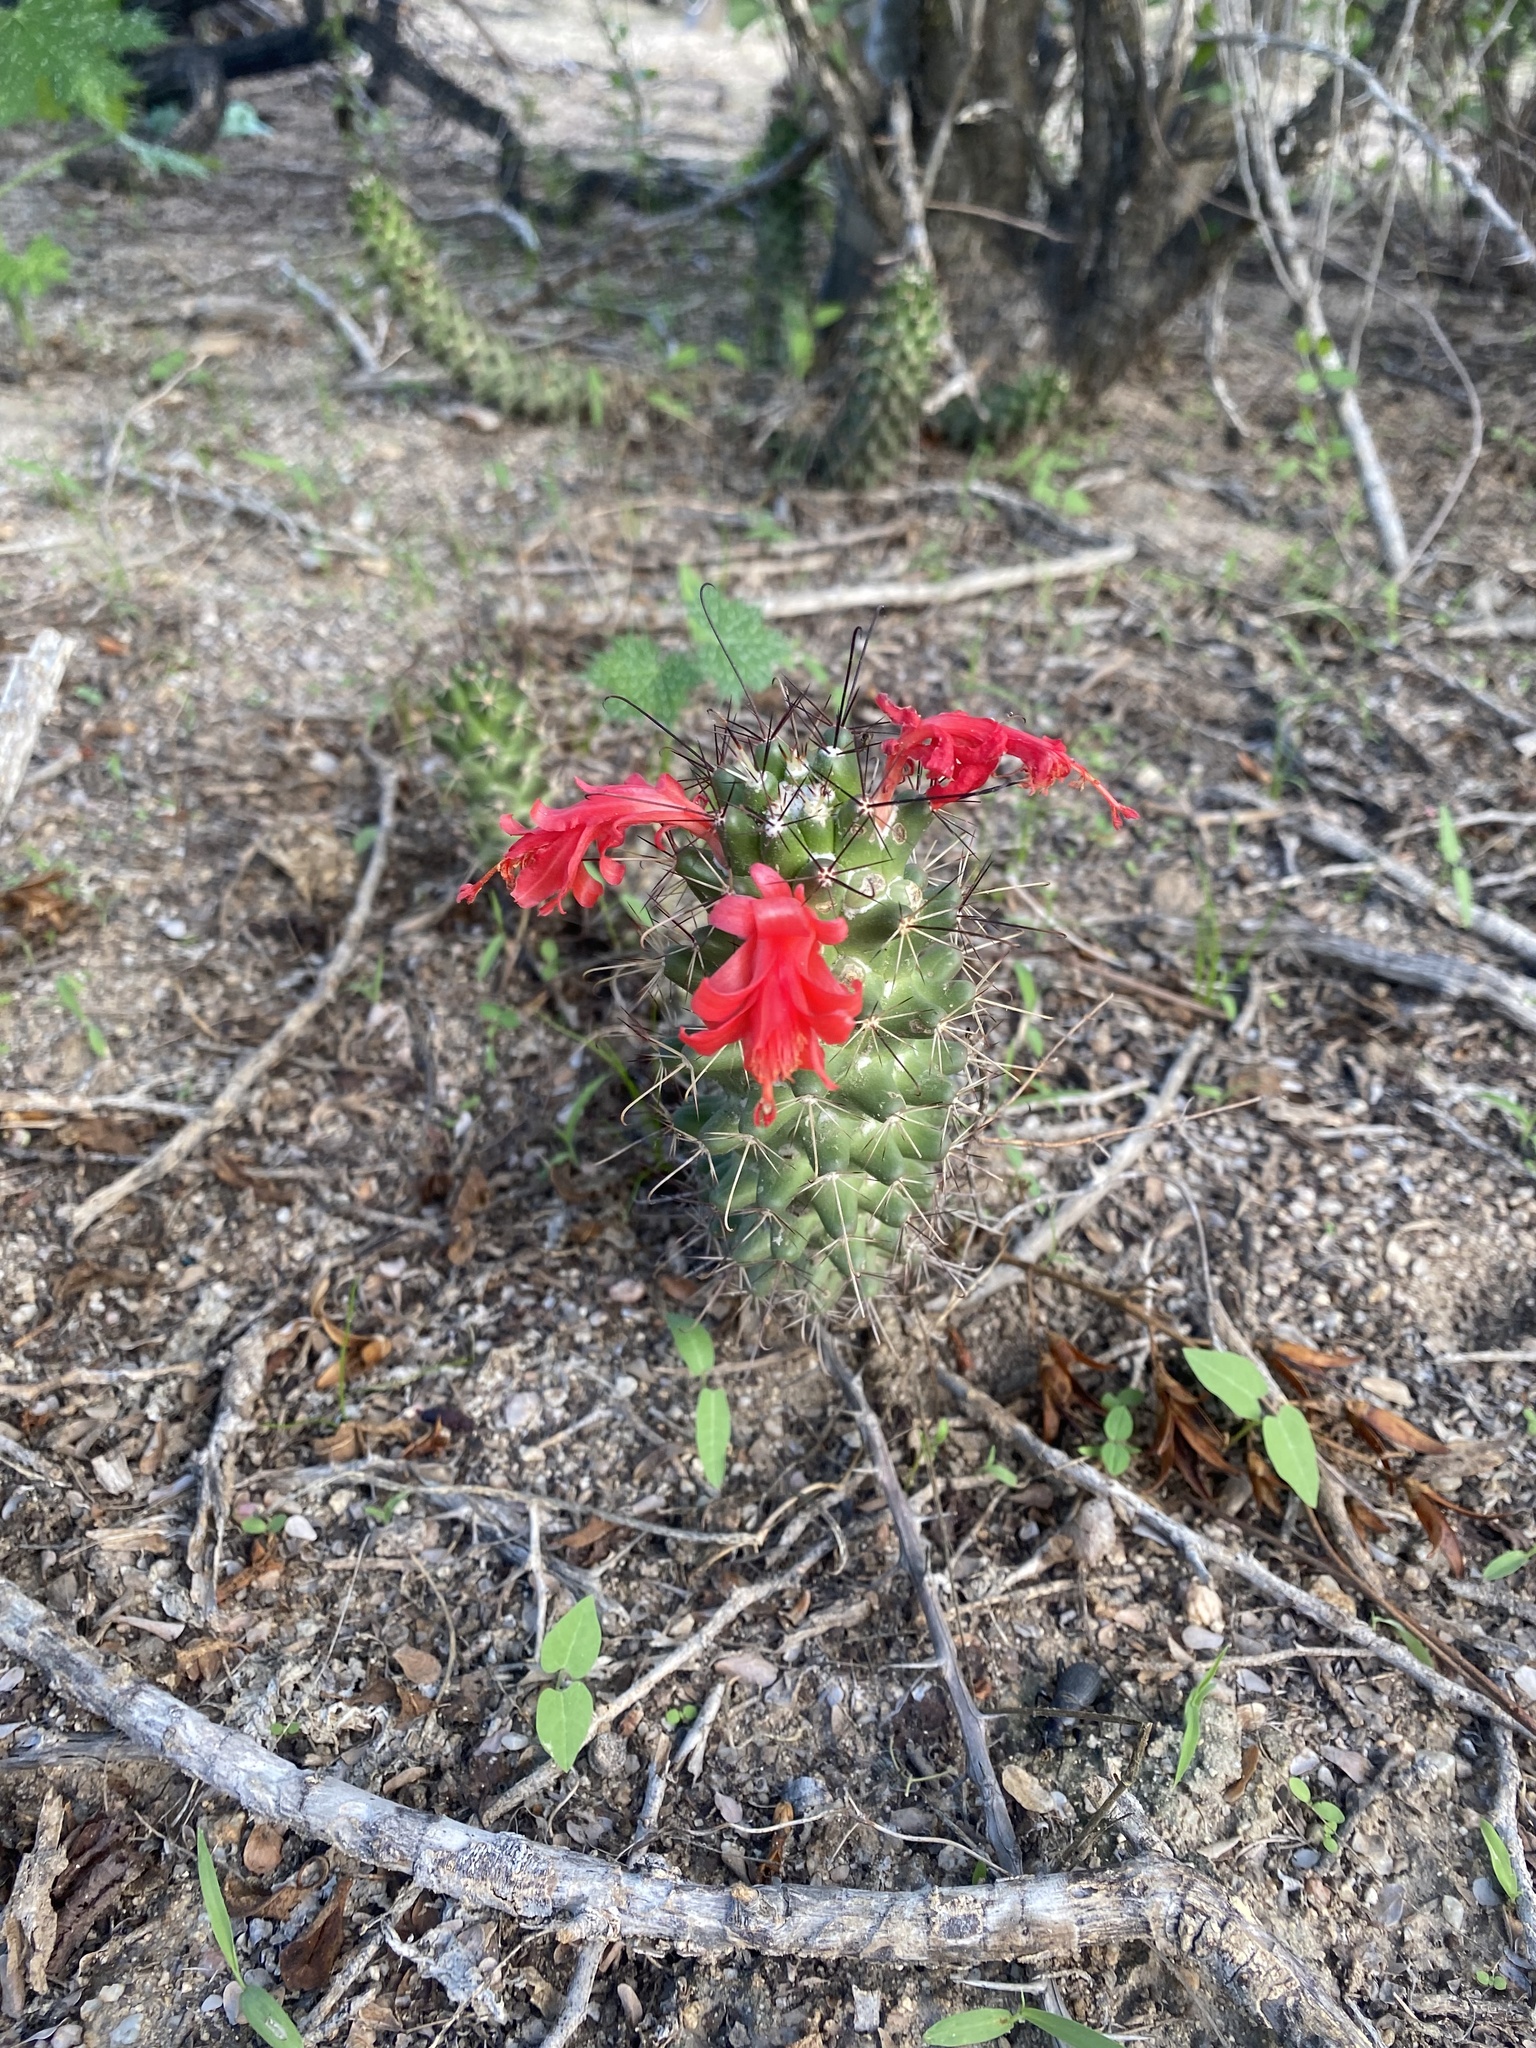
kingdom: Plantae
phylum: Tracheophyta
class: Magnoliopsida
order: Caryophyllales
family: Cactaceae
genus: Cochemiea
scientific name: Cochemiea poselgeri
